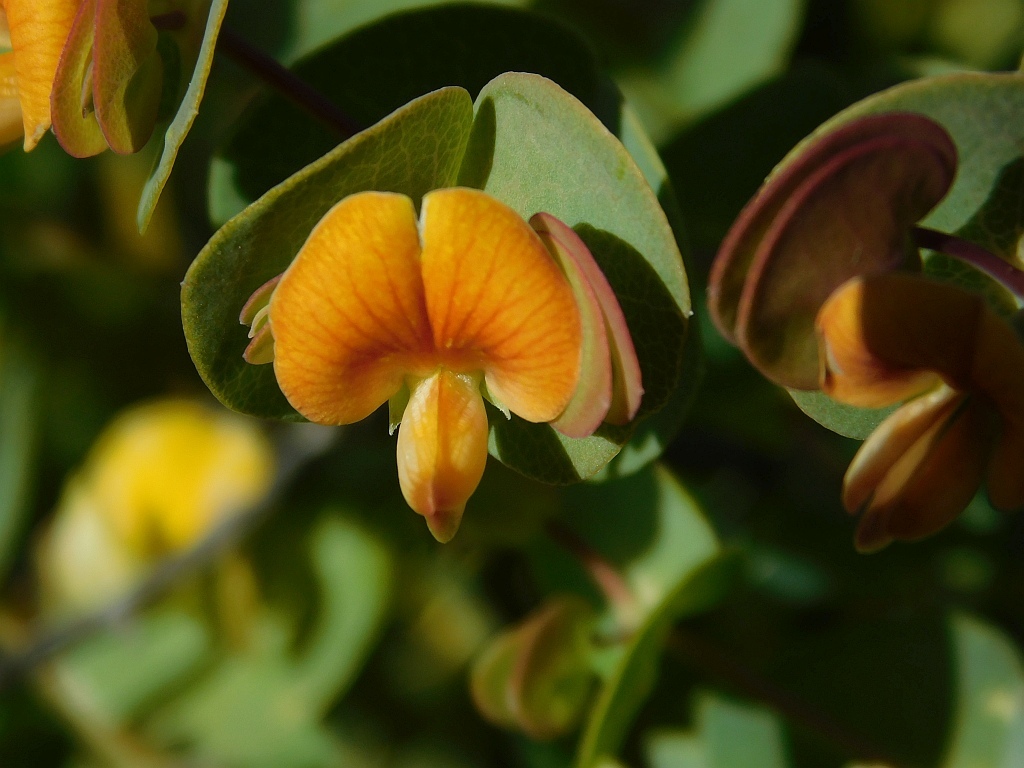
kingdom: Plantae
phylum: Tracheophyta
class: Magnoliopsida
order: Fabales
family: Fabaceae
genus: Rafnia
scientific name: Rafnia acuminata
